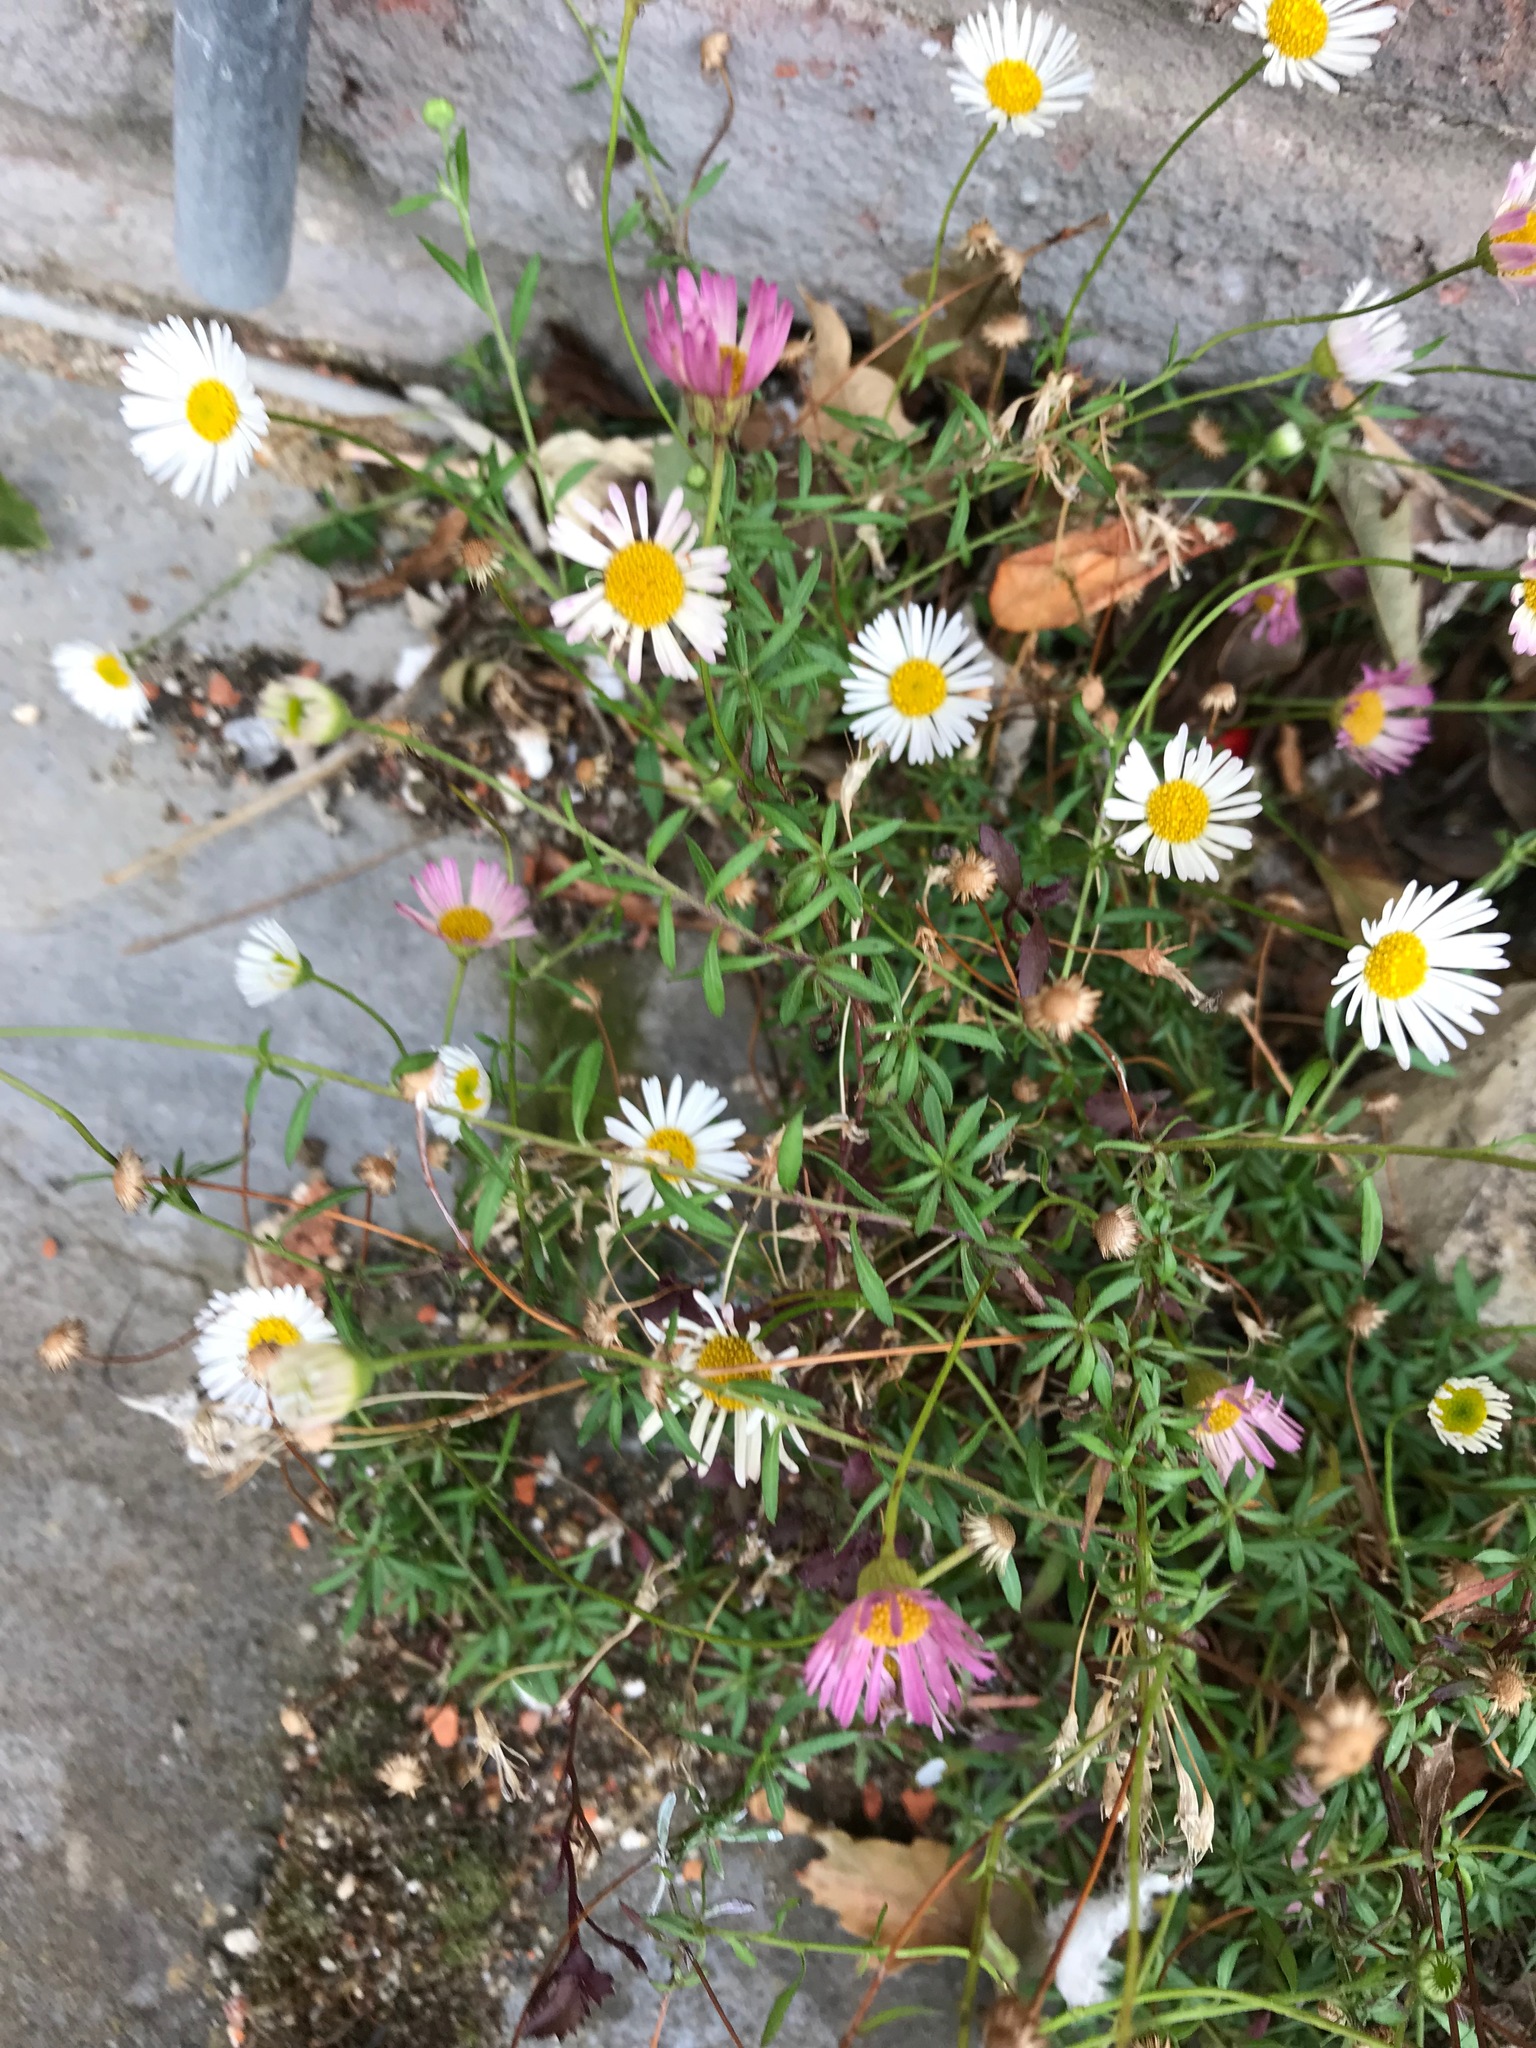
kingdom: Plantae
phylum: Tracheophyta
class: Magnoliopsida
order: Asterales
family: Asteraceae
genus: Erigeron
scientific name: Erigeron karvinskianus
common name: Mexican fleabane
